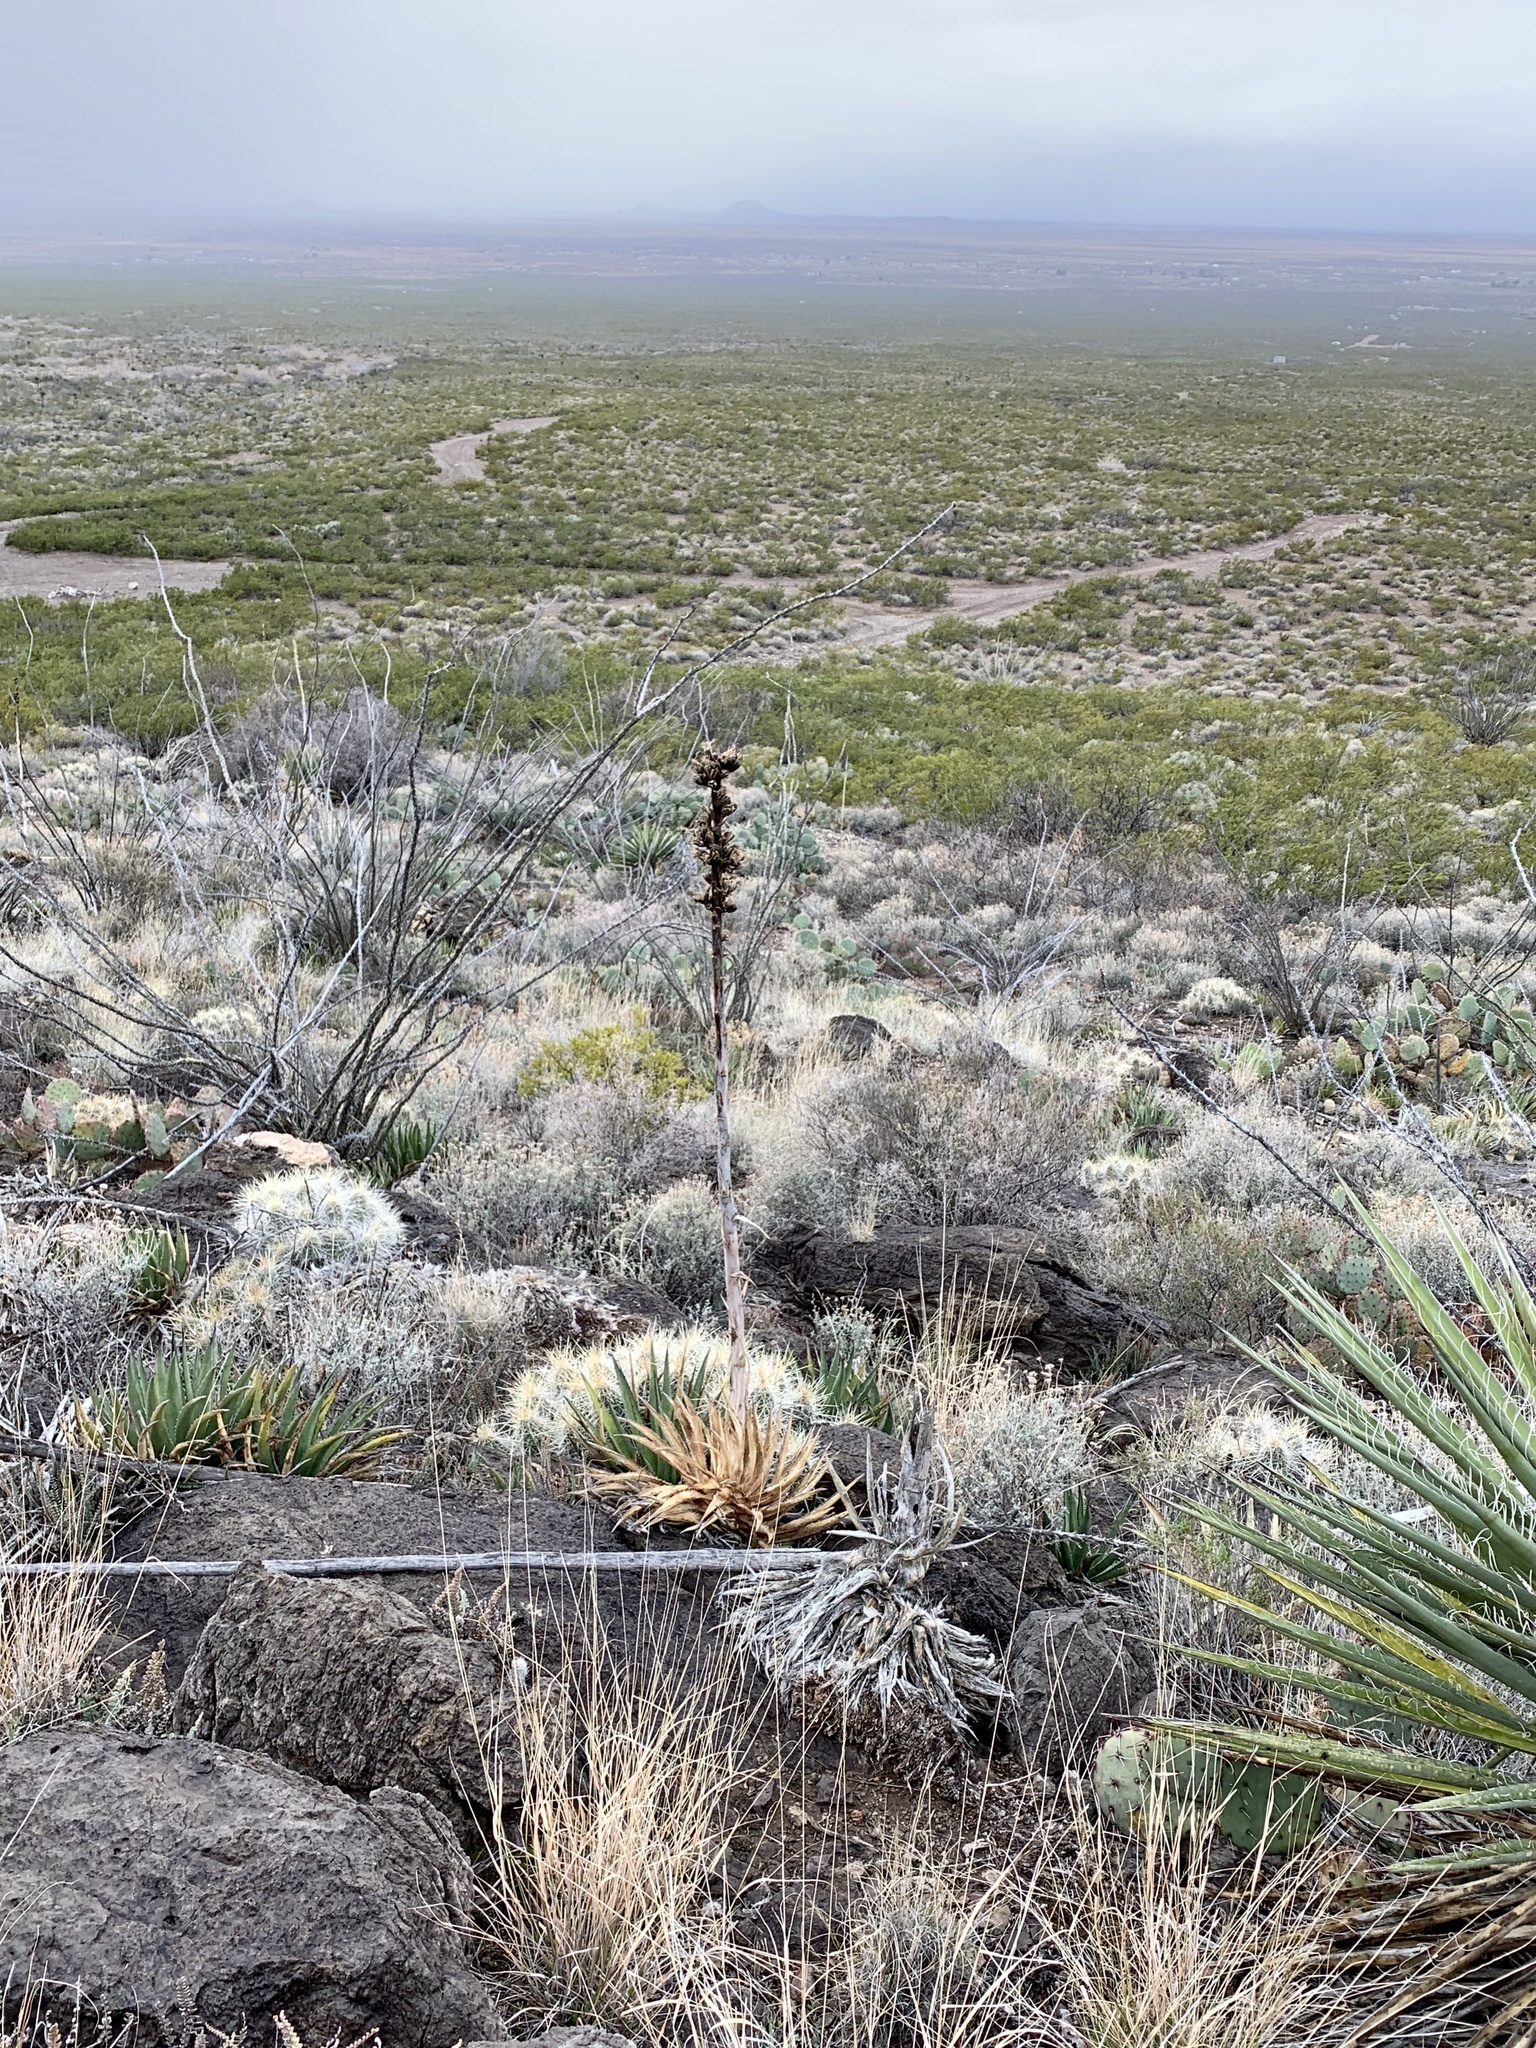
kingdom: Plantae
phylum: Tracheophyta
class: Liliopsida
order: Asparagales
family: Asparagaceae
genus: Agave
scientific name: Agave lechuguilla
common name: Lecheguilla agave
